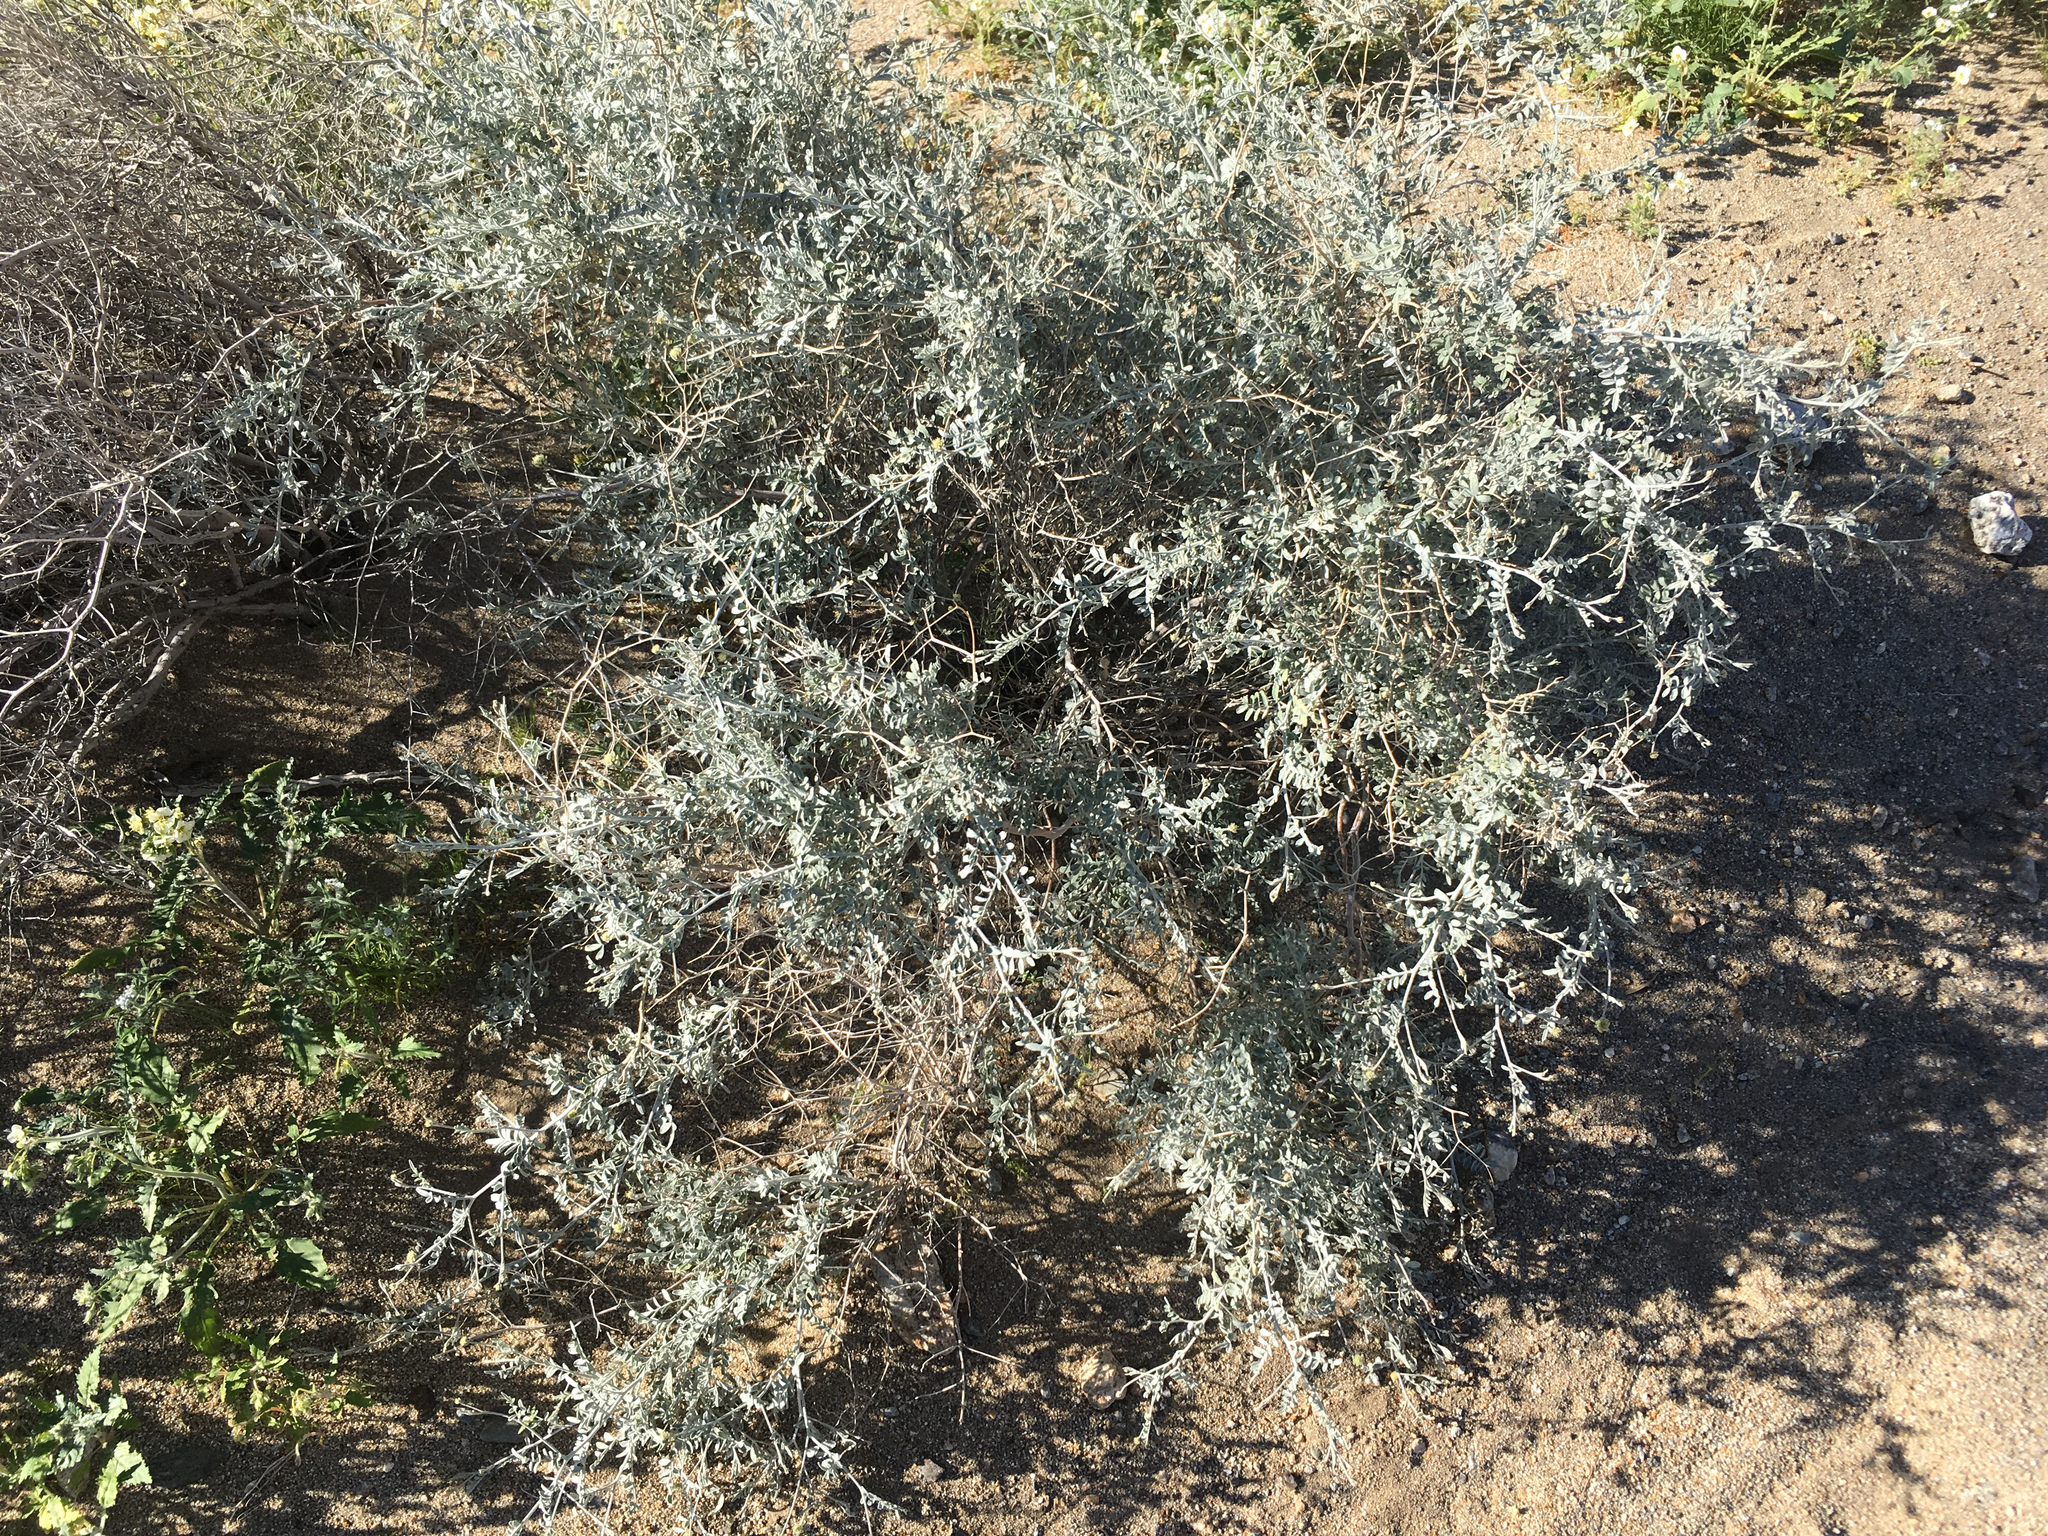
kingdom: Plantae
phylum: Tracheophyta
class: Magnoliopsida
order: Fabales
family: Fabaceae
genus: Psorothamnus
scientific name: Psorothamnus emoryi
